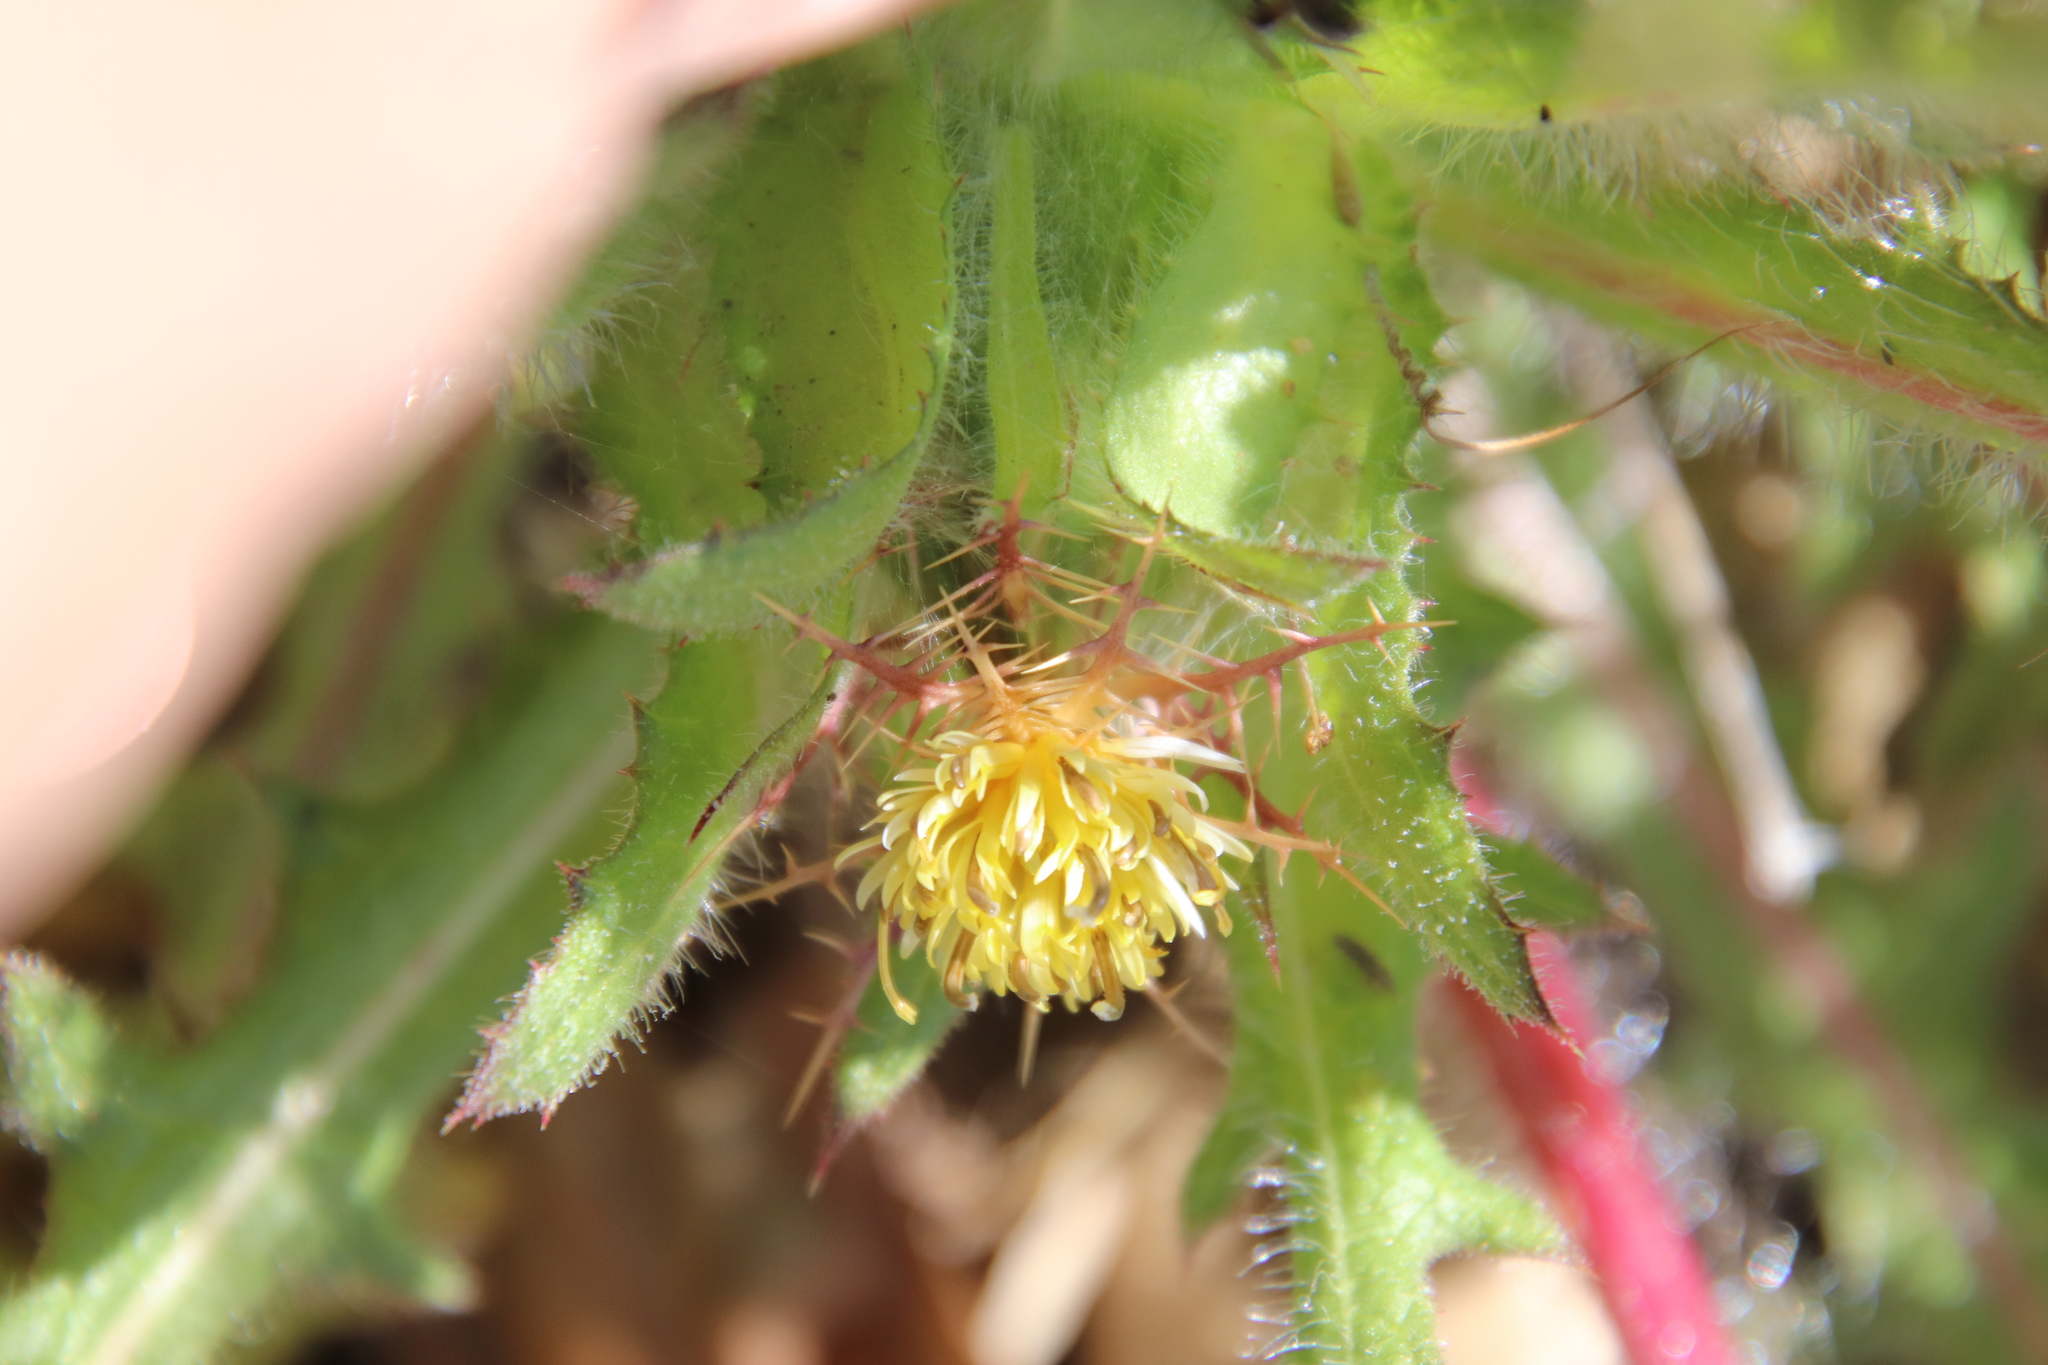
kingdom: Plantae
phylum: Tracheophyta
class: Magnoliopsida
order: Asterales
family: Asteraceae
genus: Centaurea
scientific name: Centaurea benedicta
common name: Blessed thistle
